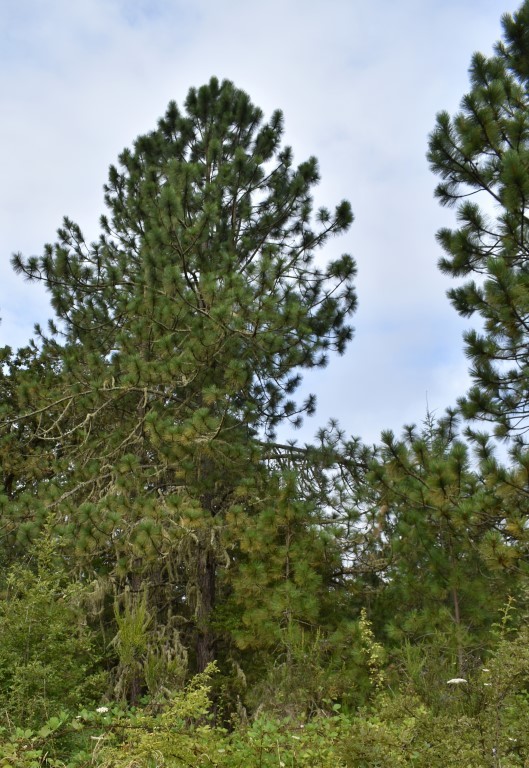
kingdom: Plantae
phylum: Tracheophyta
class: Pinopsida
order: Pinales
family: Pinaceae
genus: Pinus
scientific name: Pinus ponderosa
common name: Western yellow-pine
